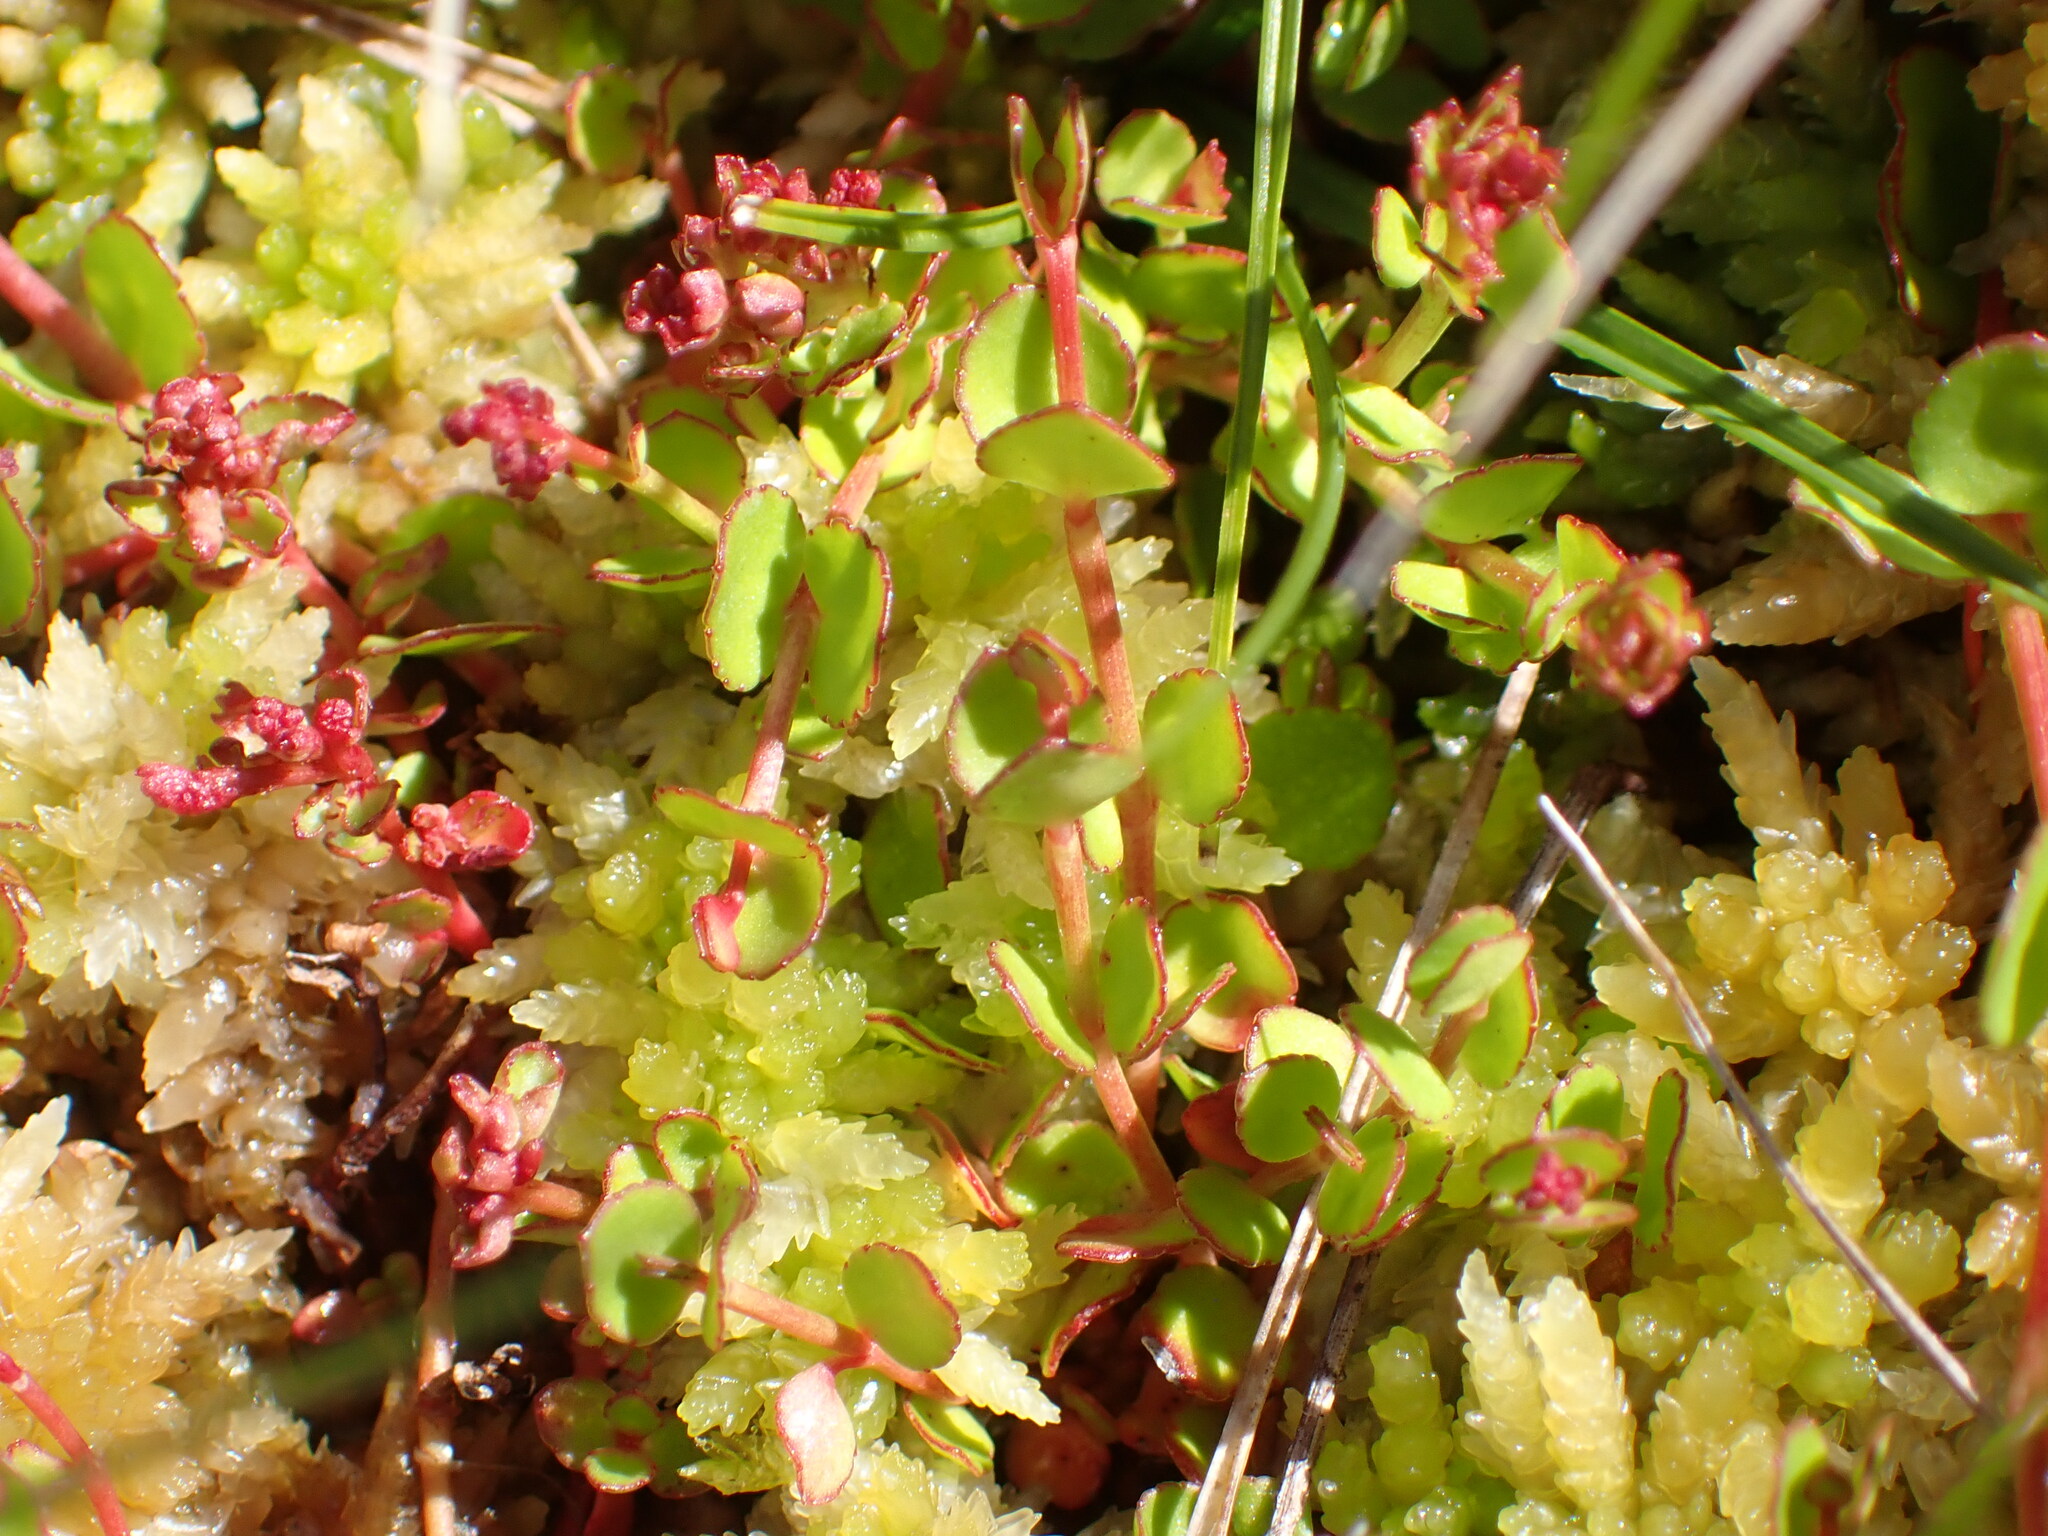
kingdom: Plantae
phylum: Tracheophyta
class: Magnoliopsida
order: Saxifragales
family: Haloragaceae
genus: Gonocarpus
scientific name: Gonocarpus micranthus
